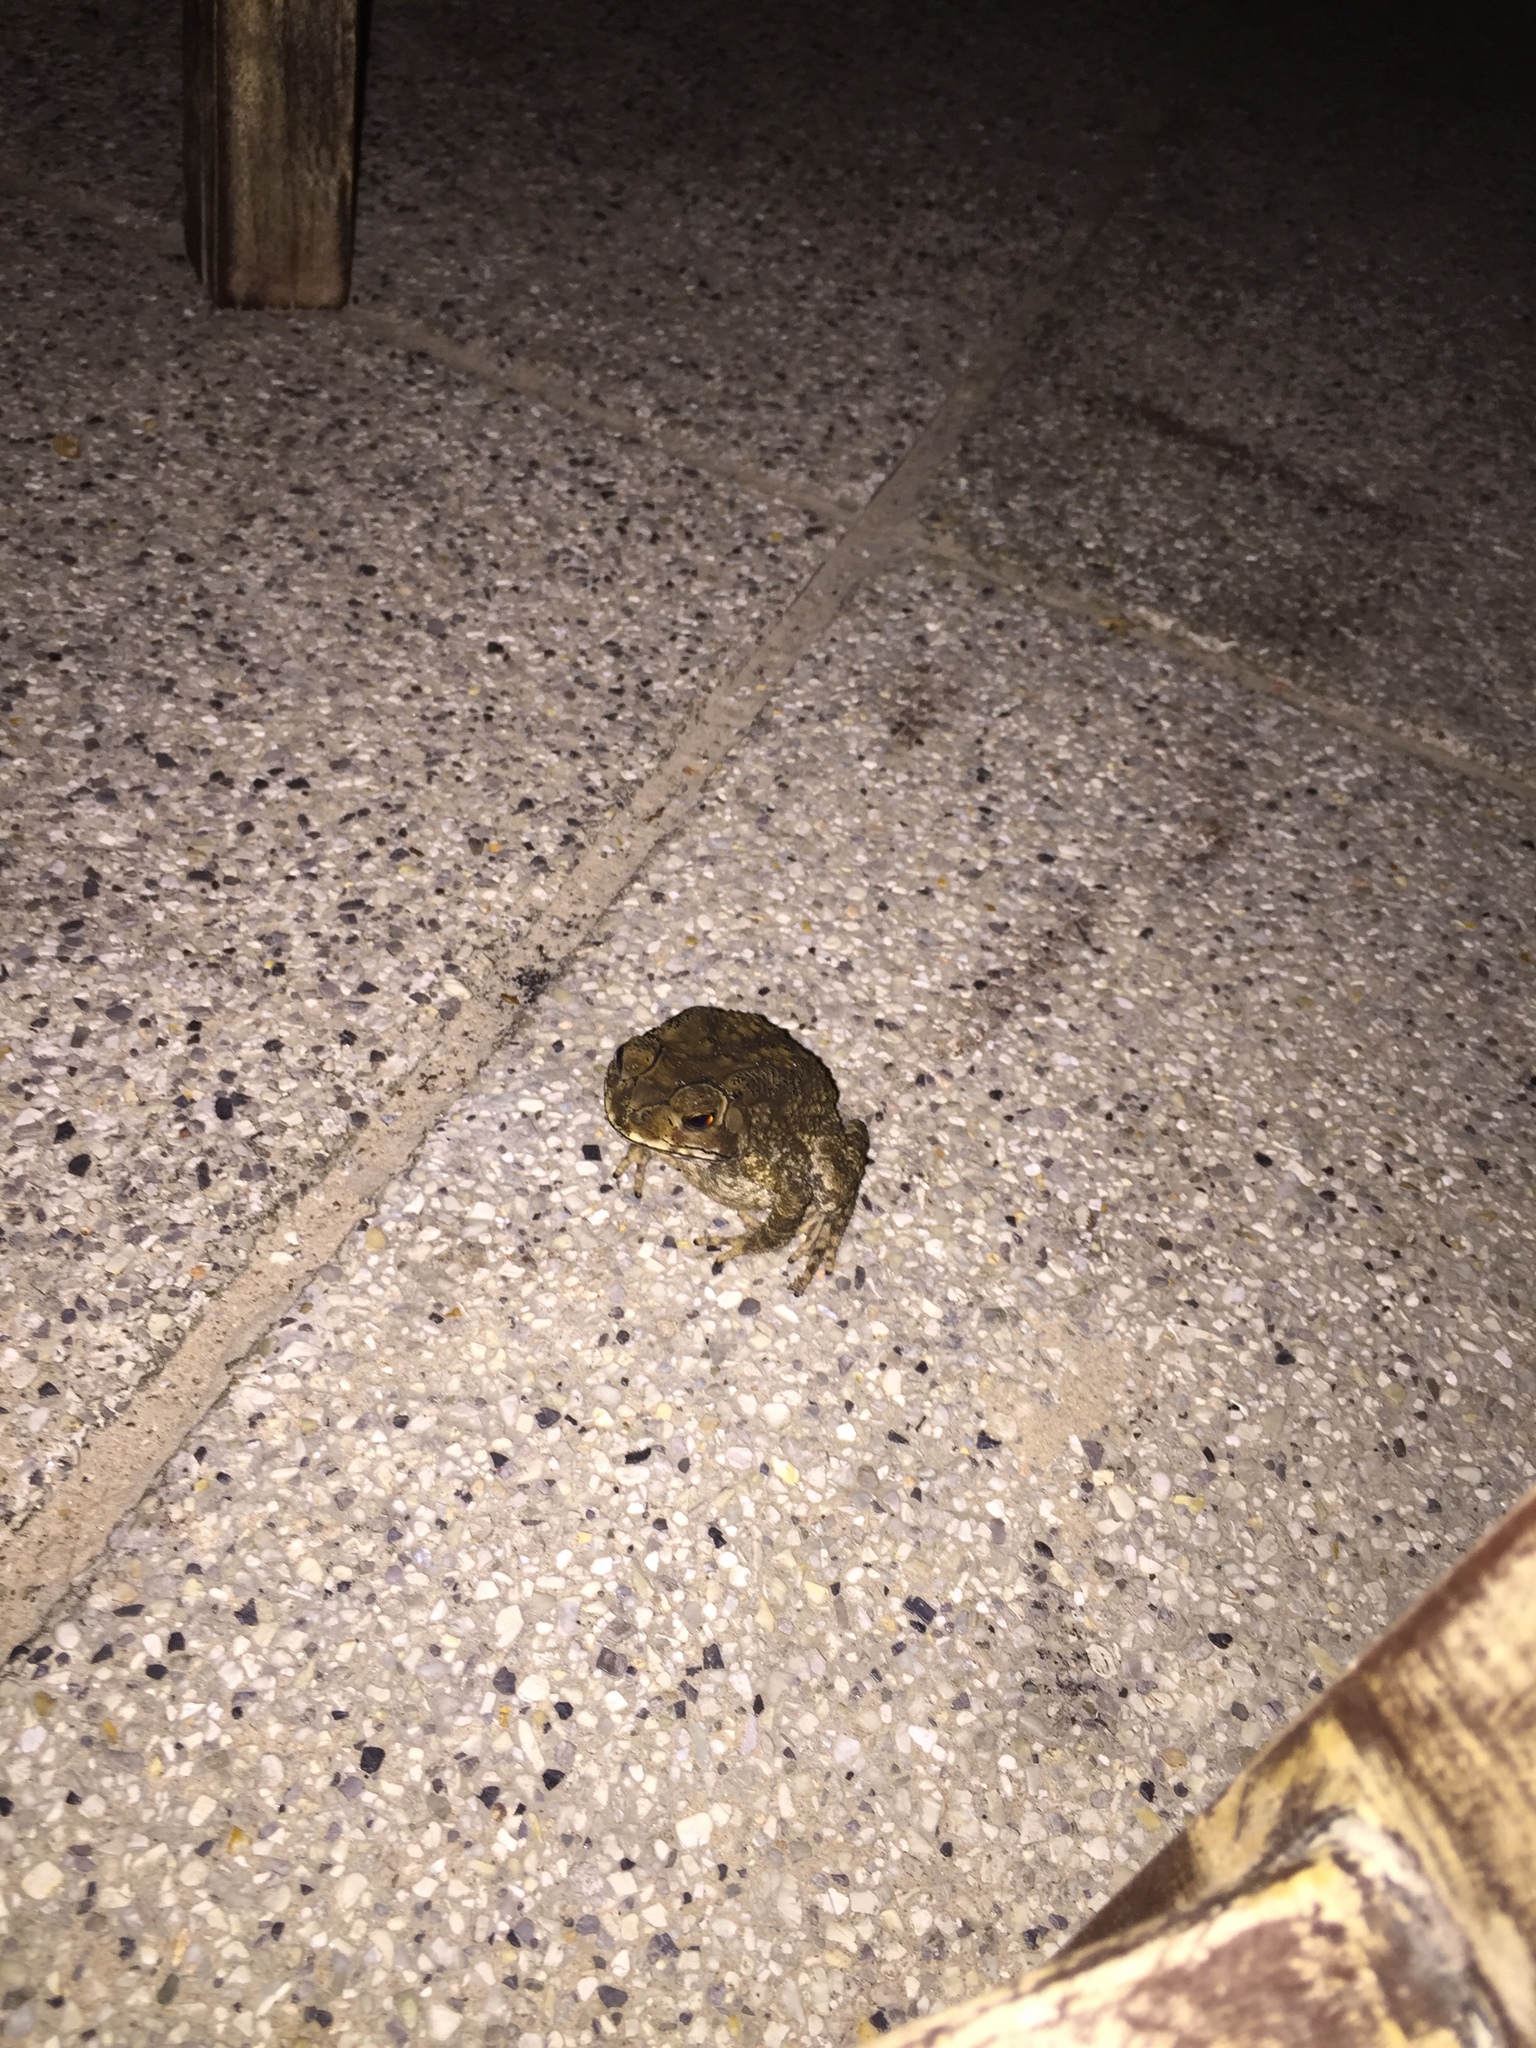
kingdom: Animalia
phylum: Chordata
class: Amphibia
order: Anura
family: Bufonidae
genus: Duttaphrynus
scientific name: Duttaphrynus melanostictus
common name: Common sunda toad
